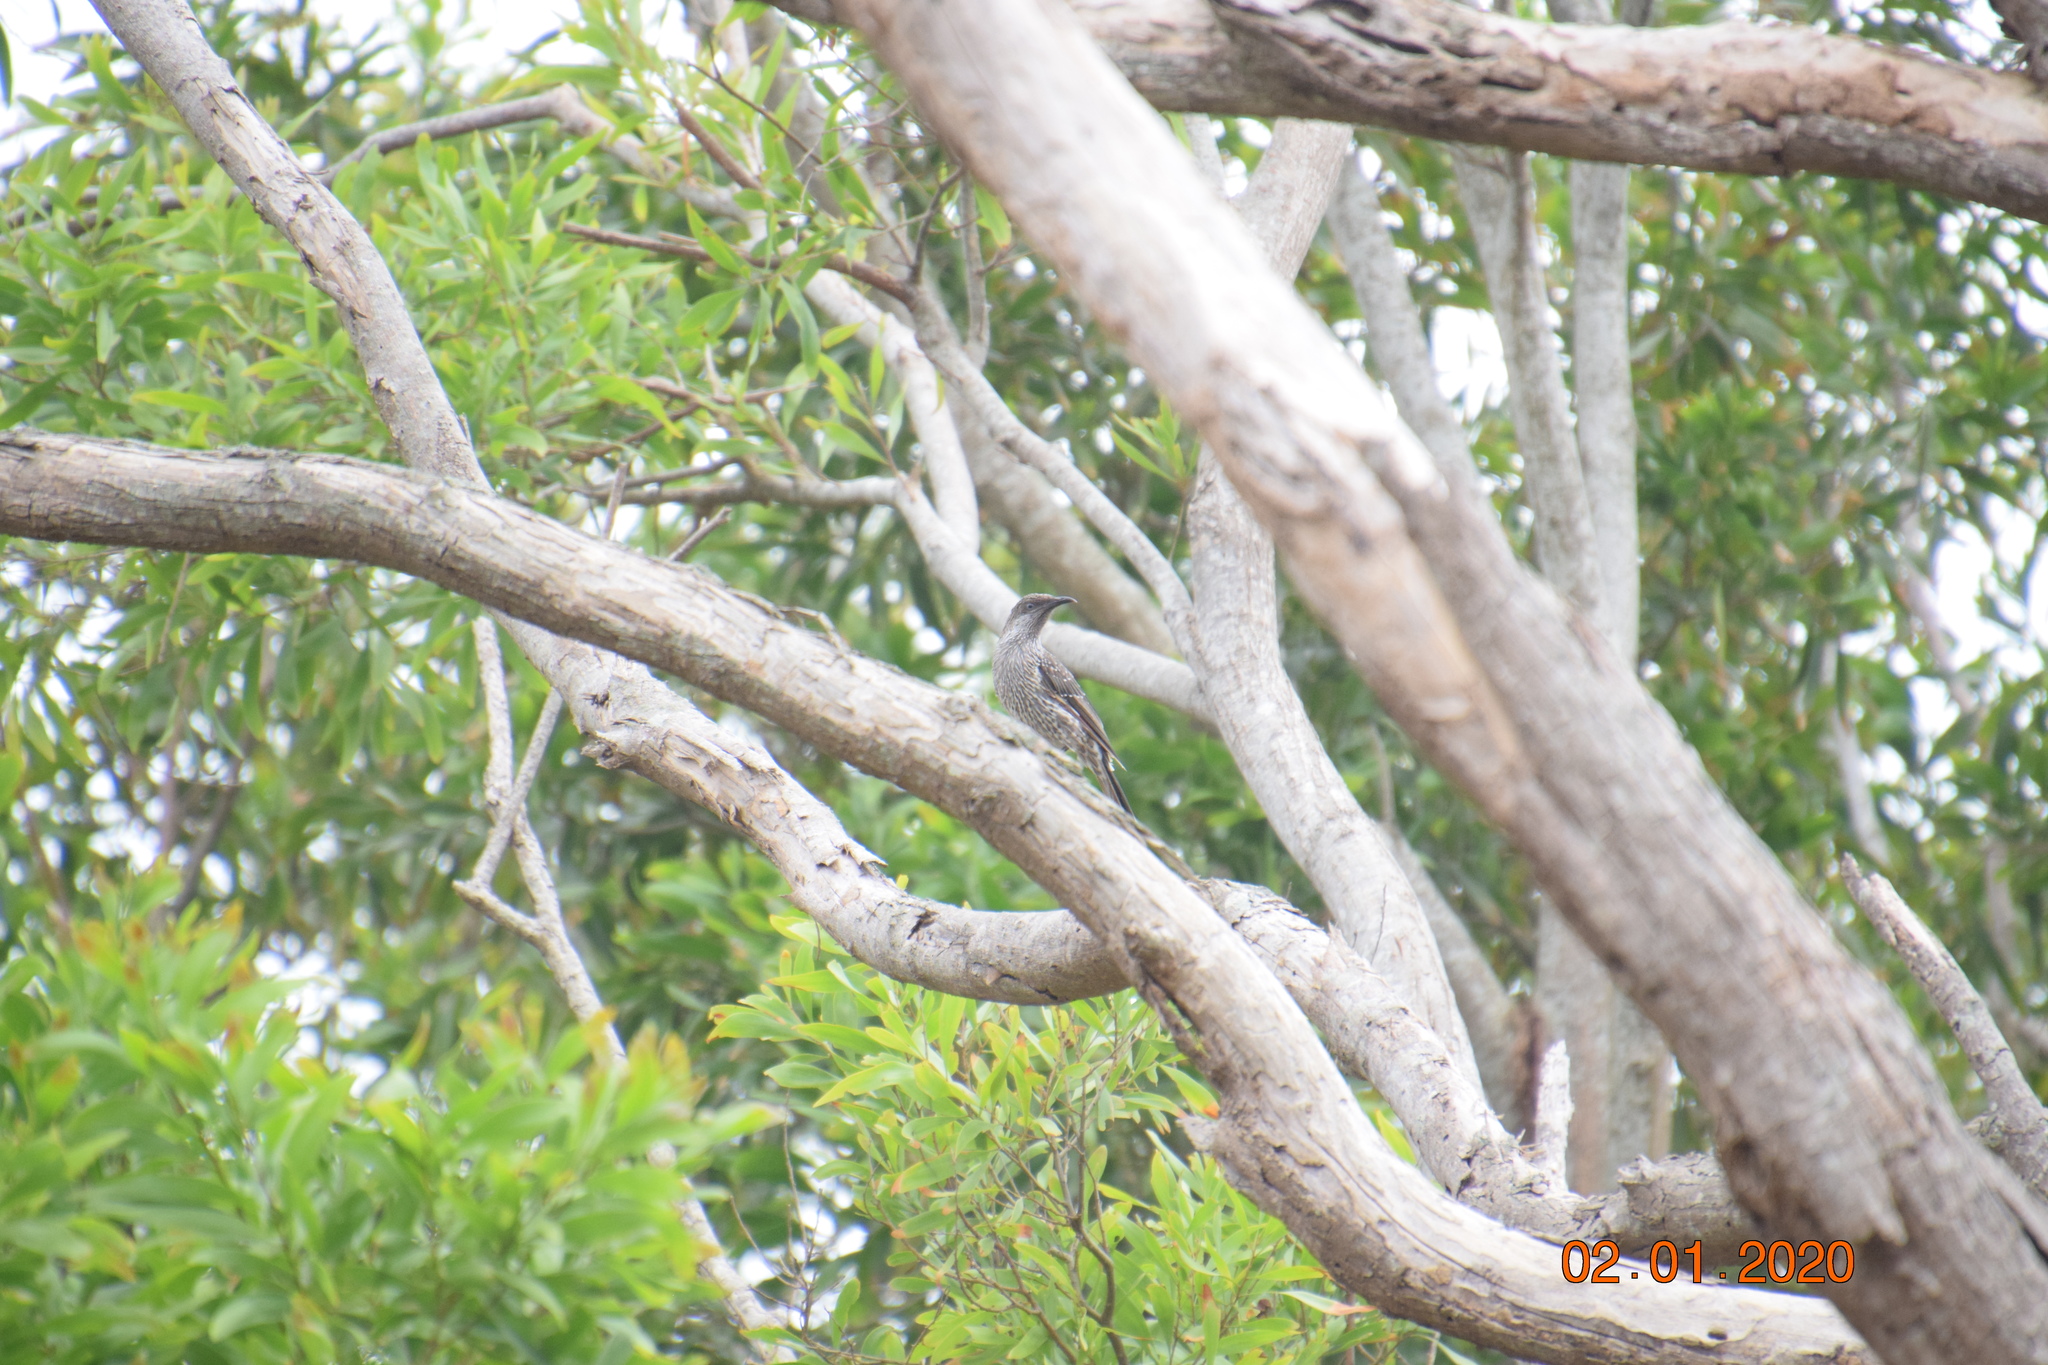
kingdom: Animalia
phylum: Chordata
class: Aves
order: Passeriformes
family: Meliphagidae
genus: Anthochaera
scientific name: Anthochaera chrysoptera
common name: Little wattlebird
